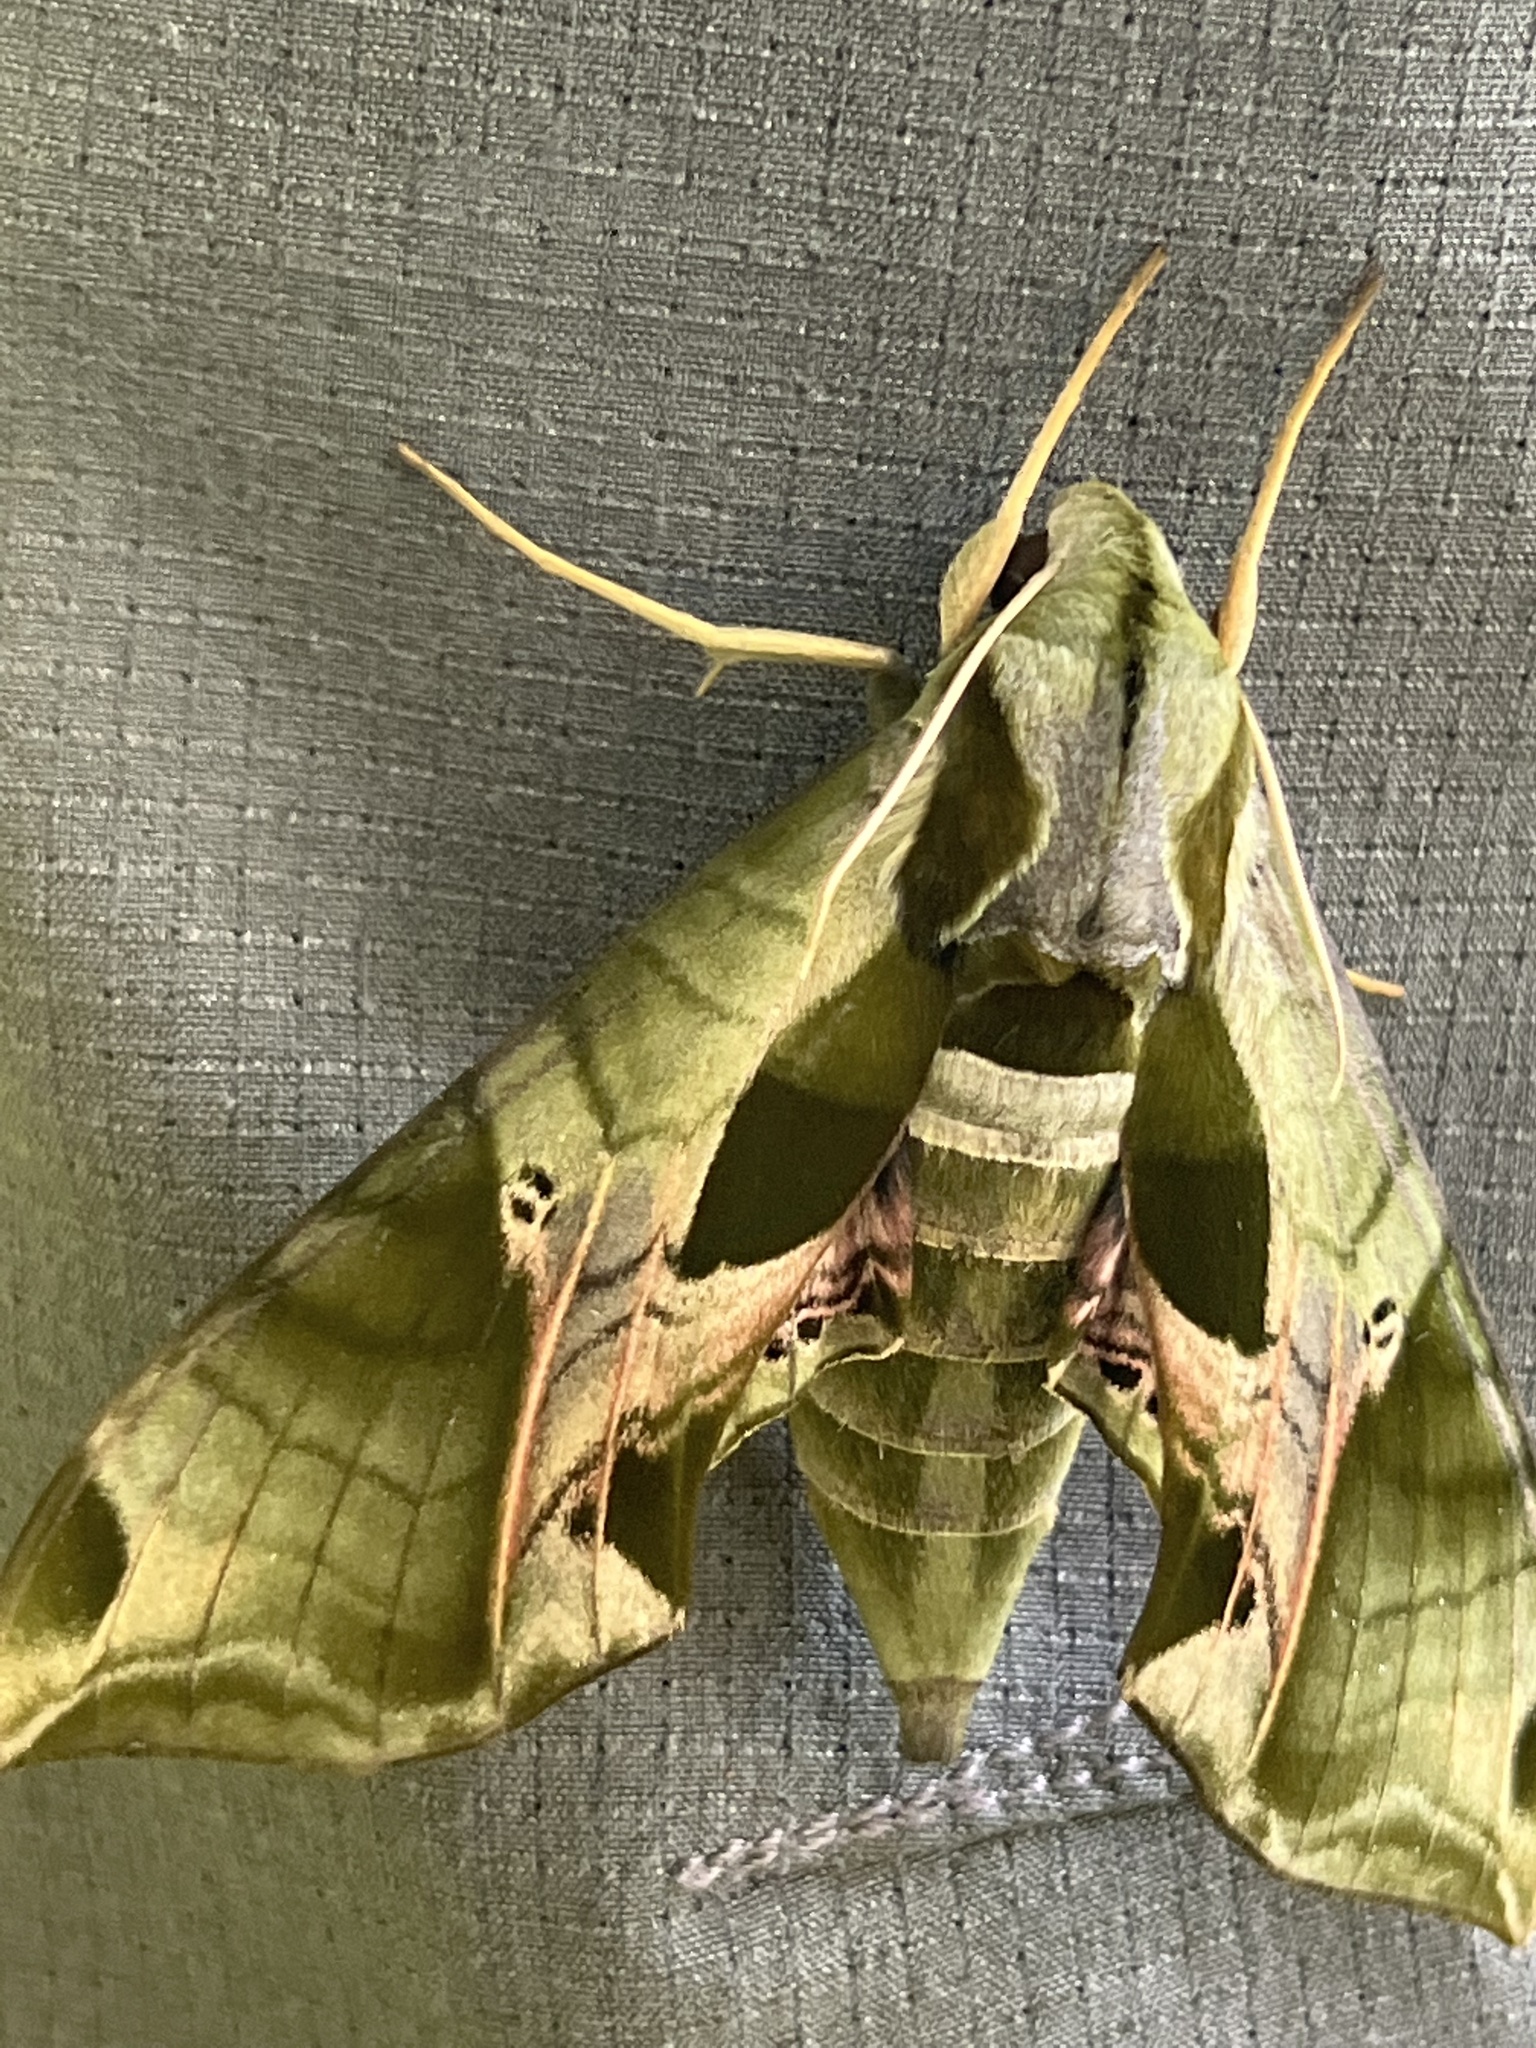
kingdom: Animalia
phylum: Arthropoda
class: Insecta
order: Lepidoptera
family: Sphingidae
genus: Eumorpha
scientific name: Eumorpha pandorus
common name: Pandora sphinx
